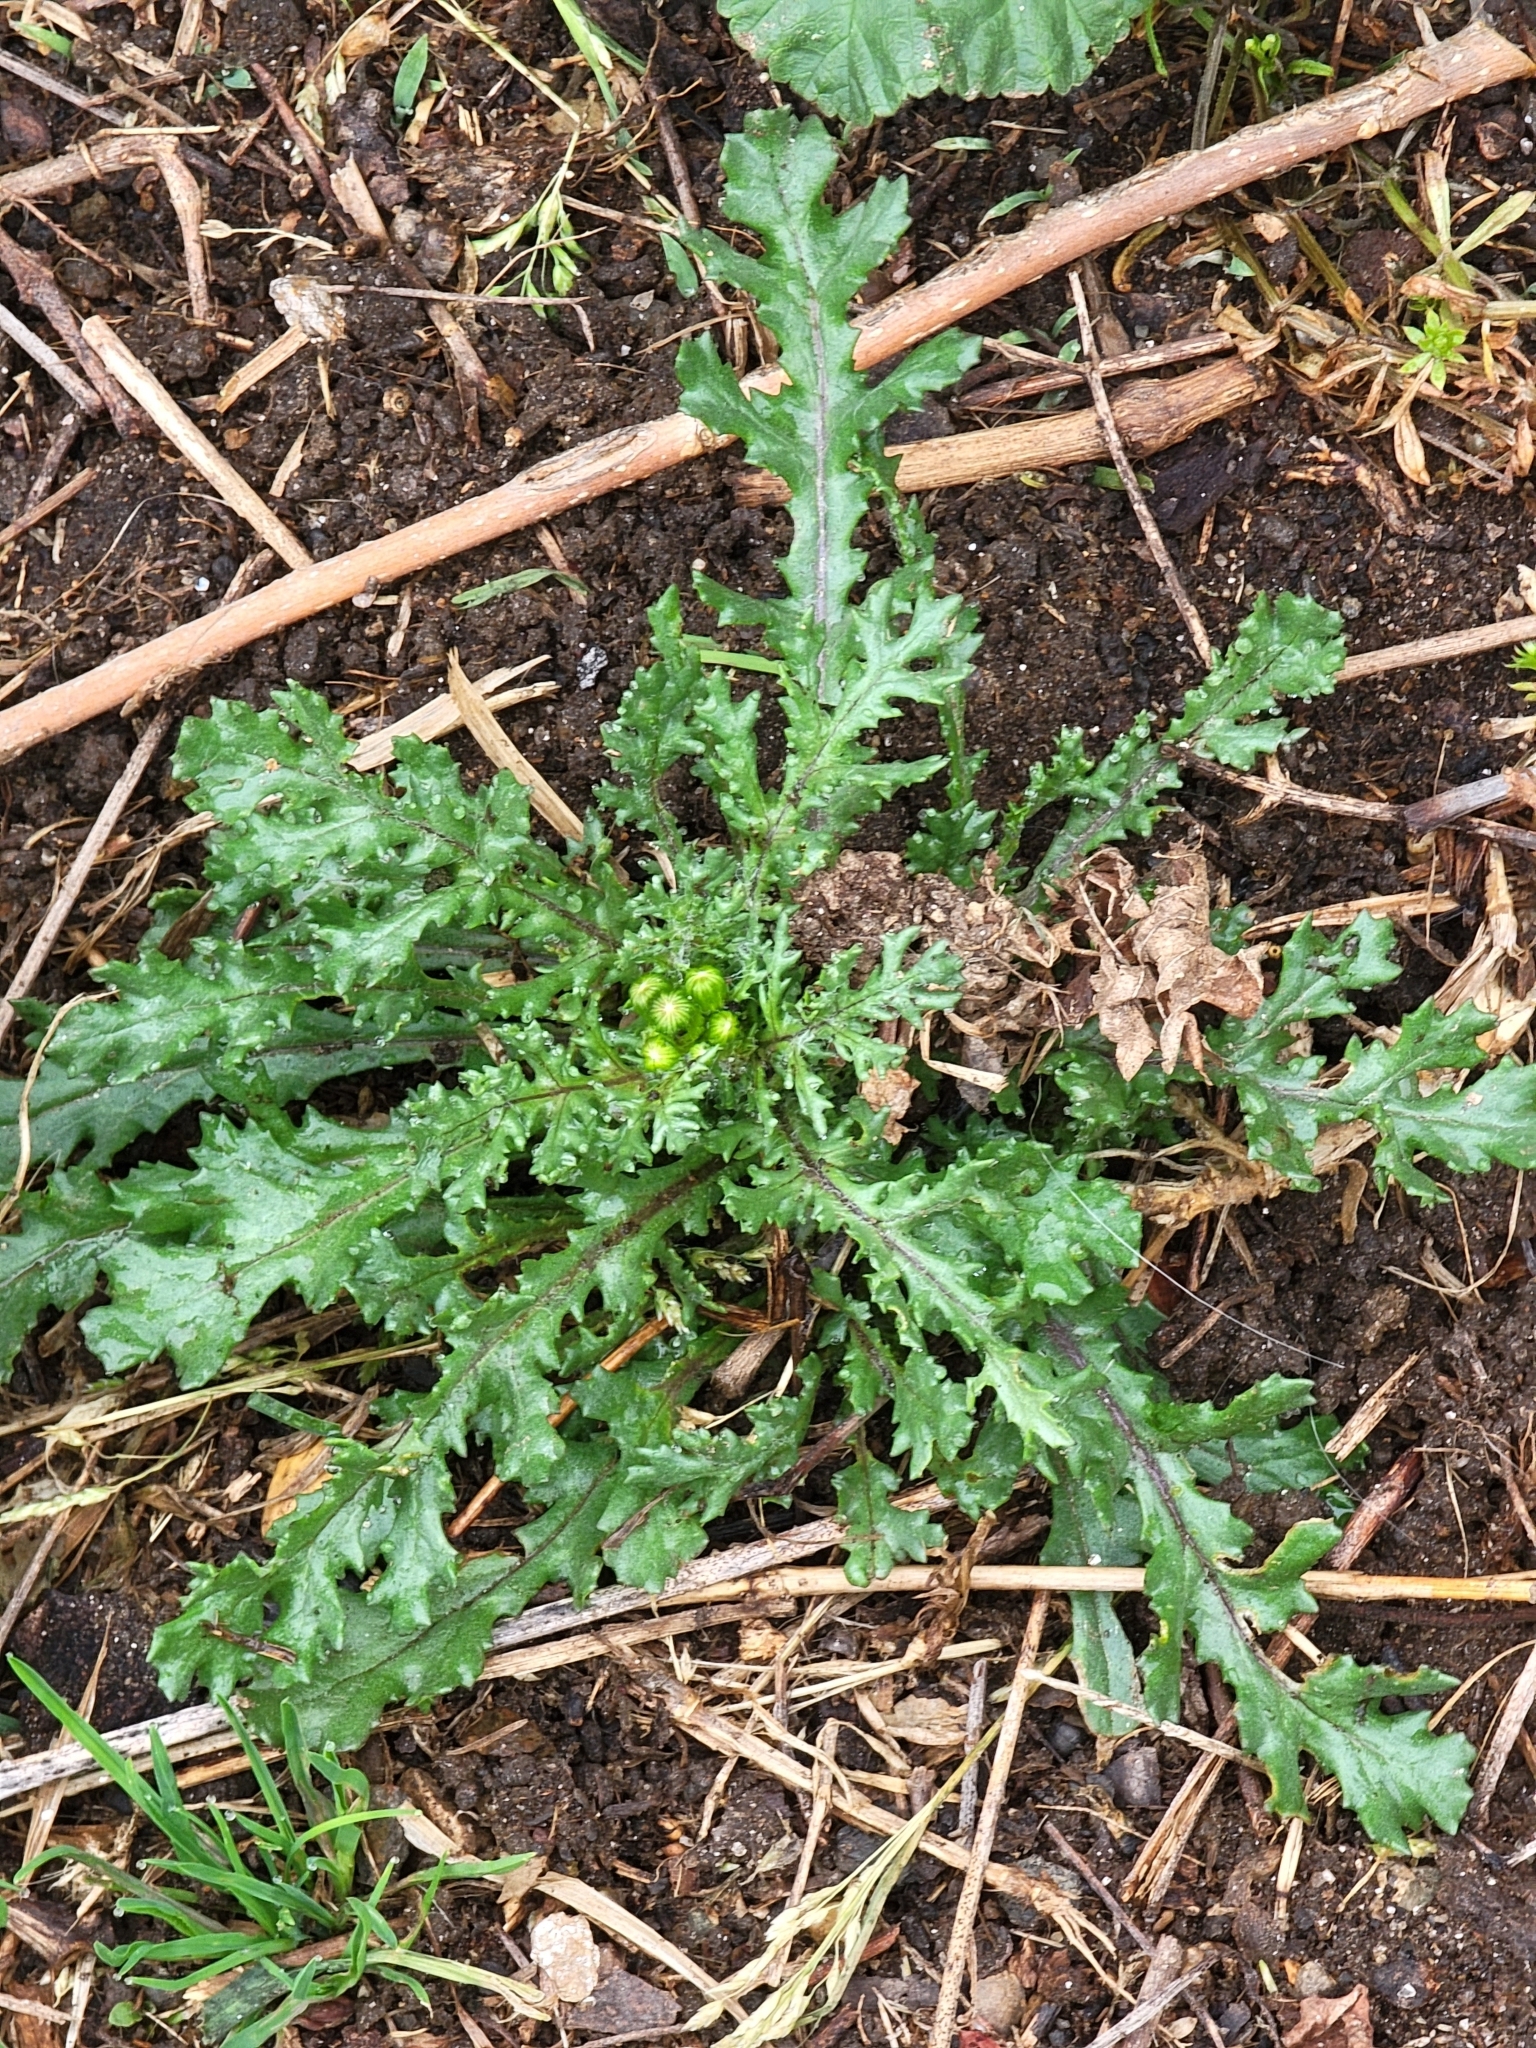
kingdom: Plantae
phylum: Tracheophyta
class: Magnoliopsida
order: Asterales
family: Asteraceae
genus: Senecio
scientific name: Senecio vulgaris
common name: Old-man-in-the-spring
